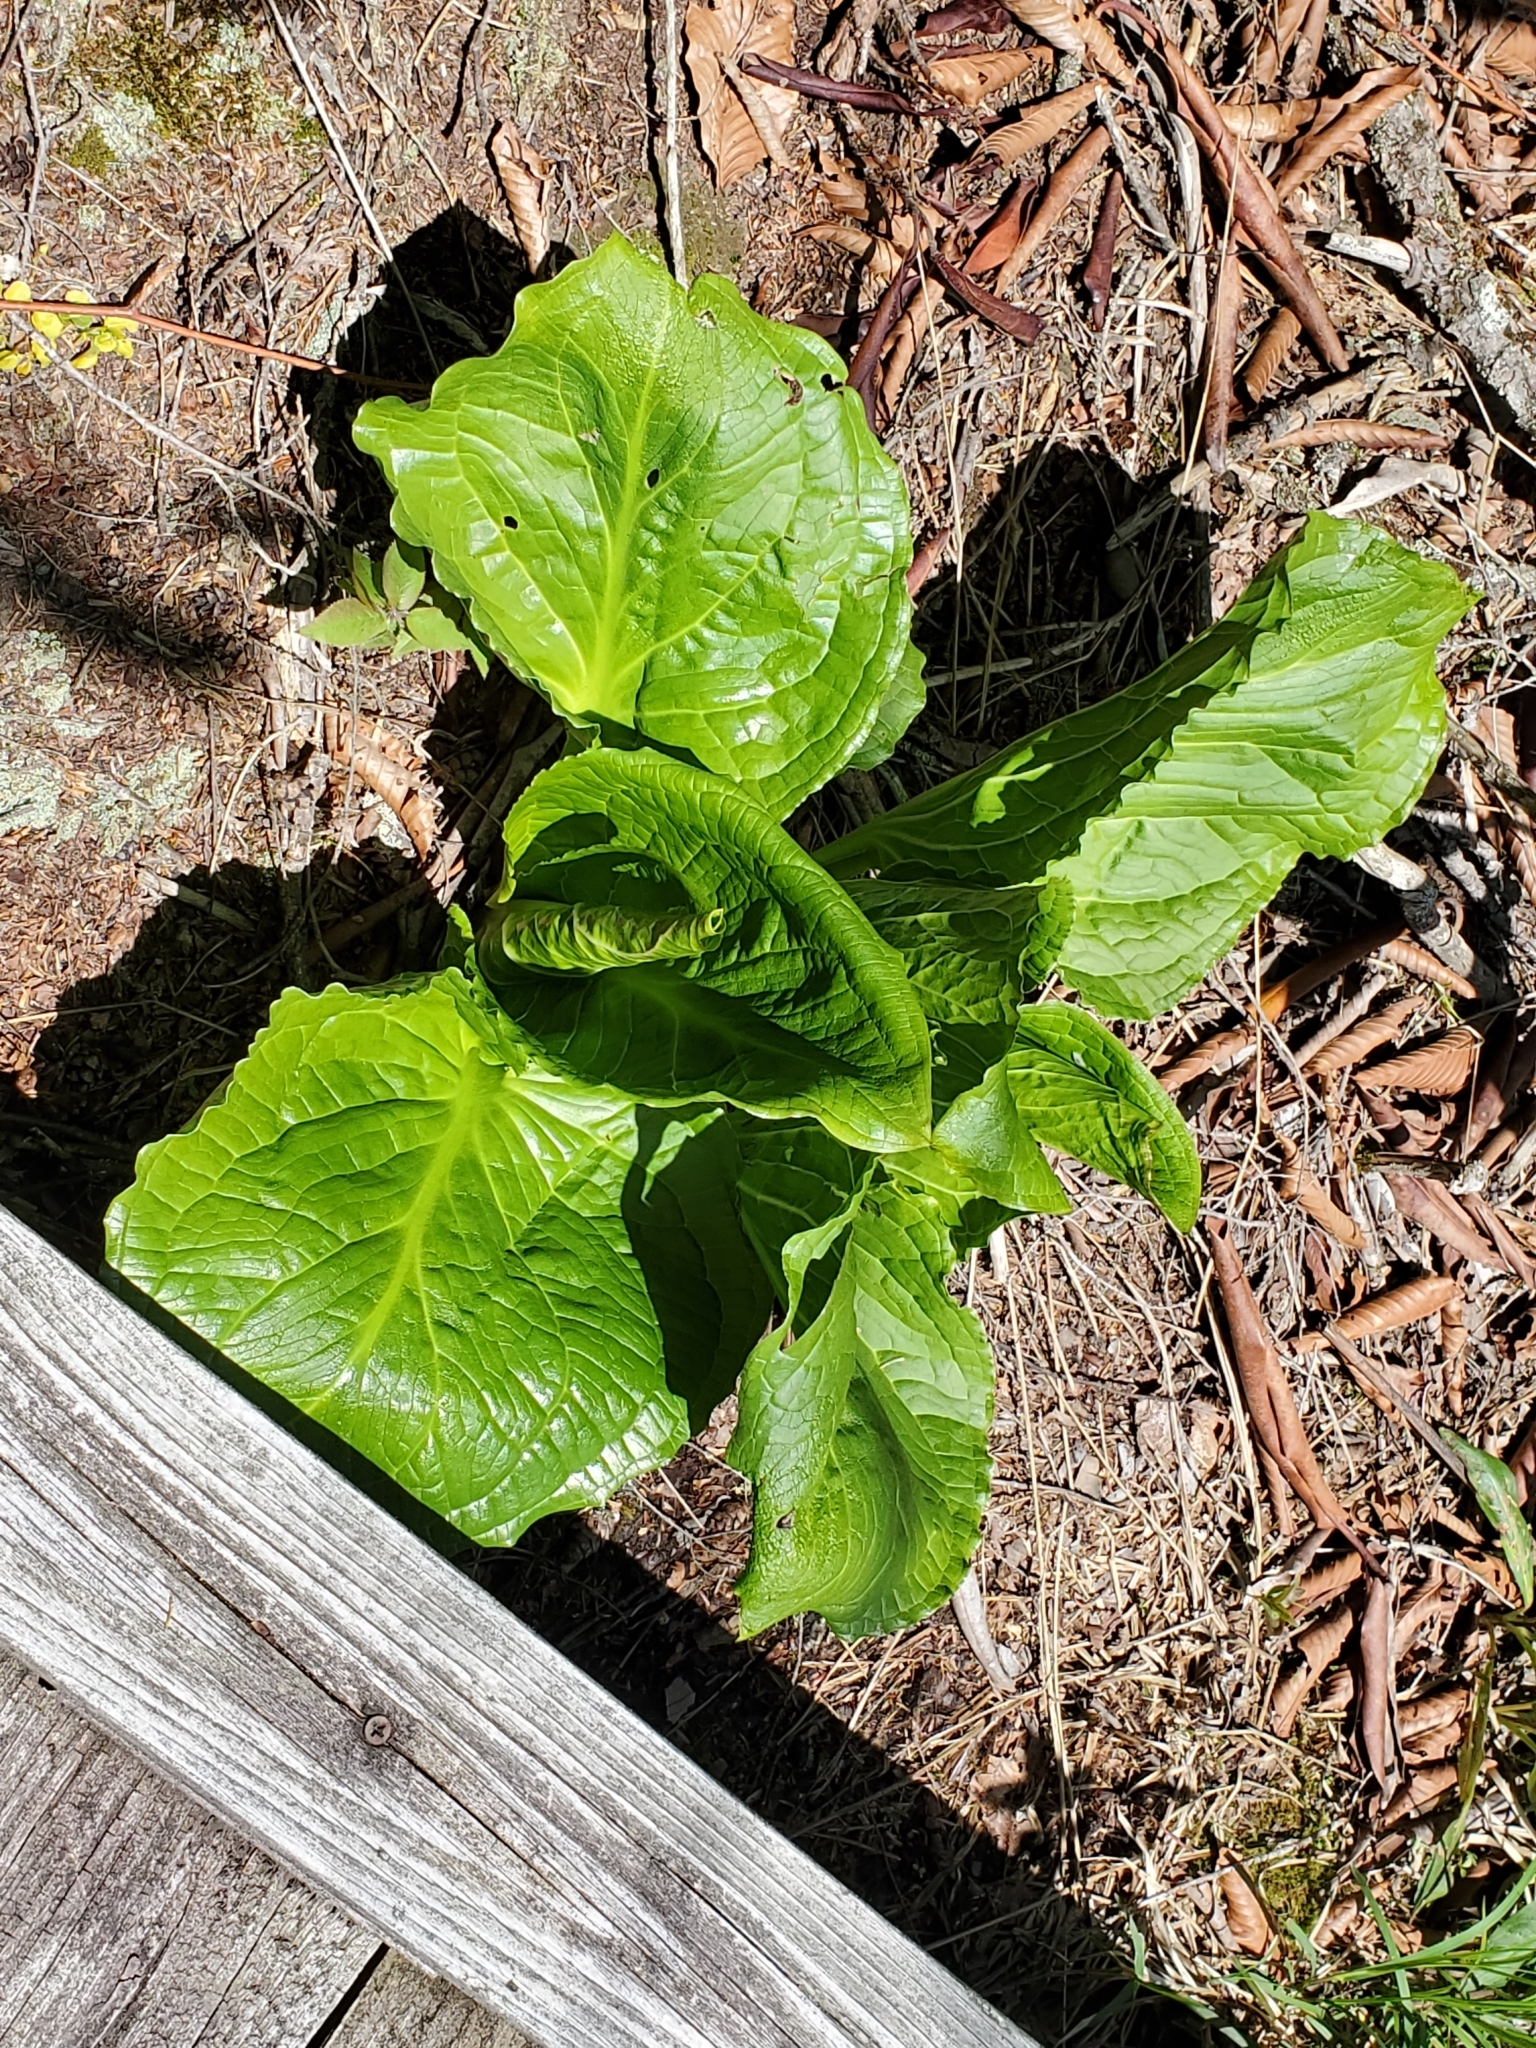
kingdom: Plantae
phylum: Tracheophyta
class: Liliopsida
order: Alismatales
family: Araceae
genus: Symplocarpus
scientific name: Symplocarpus foetidus
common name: Eastern skunk cabbage
